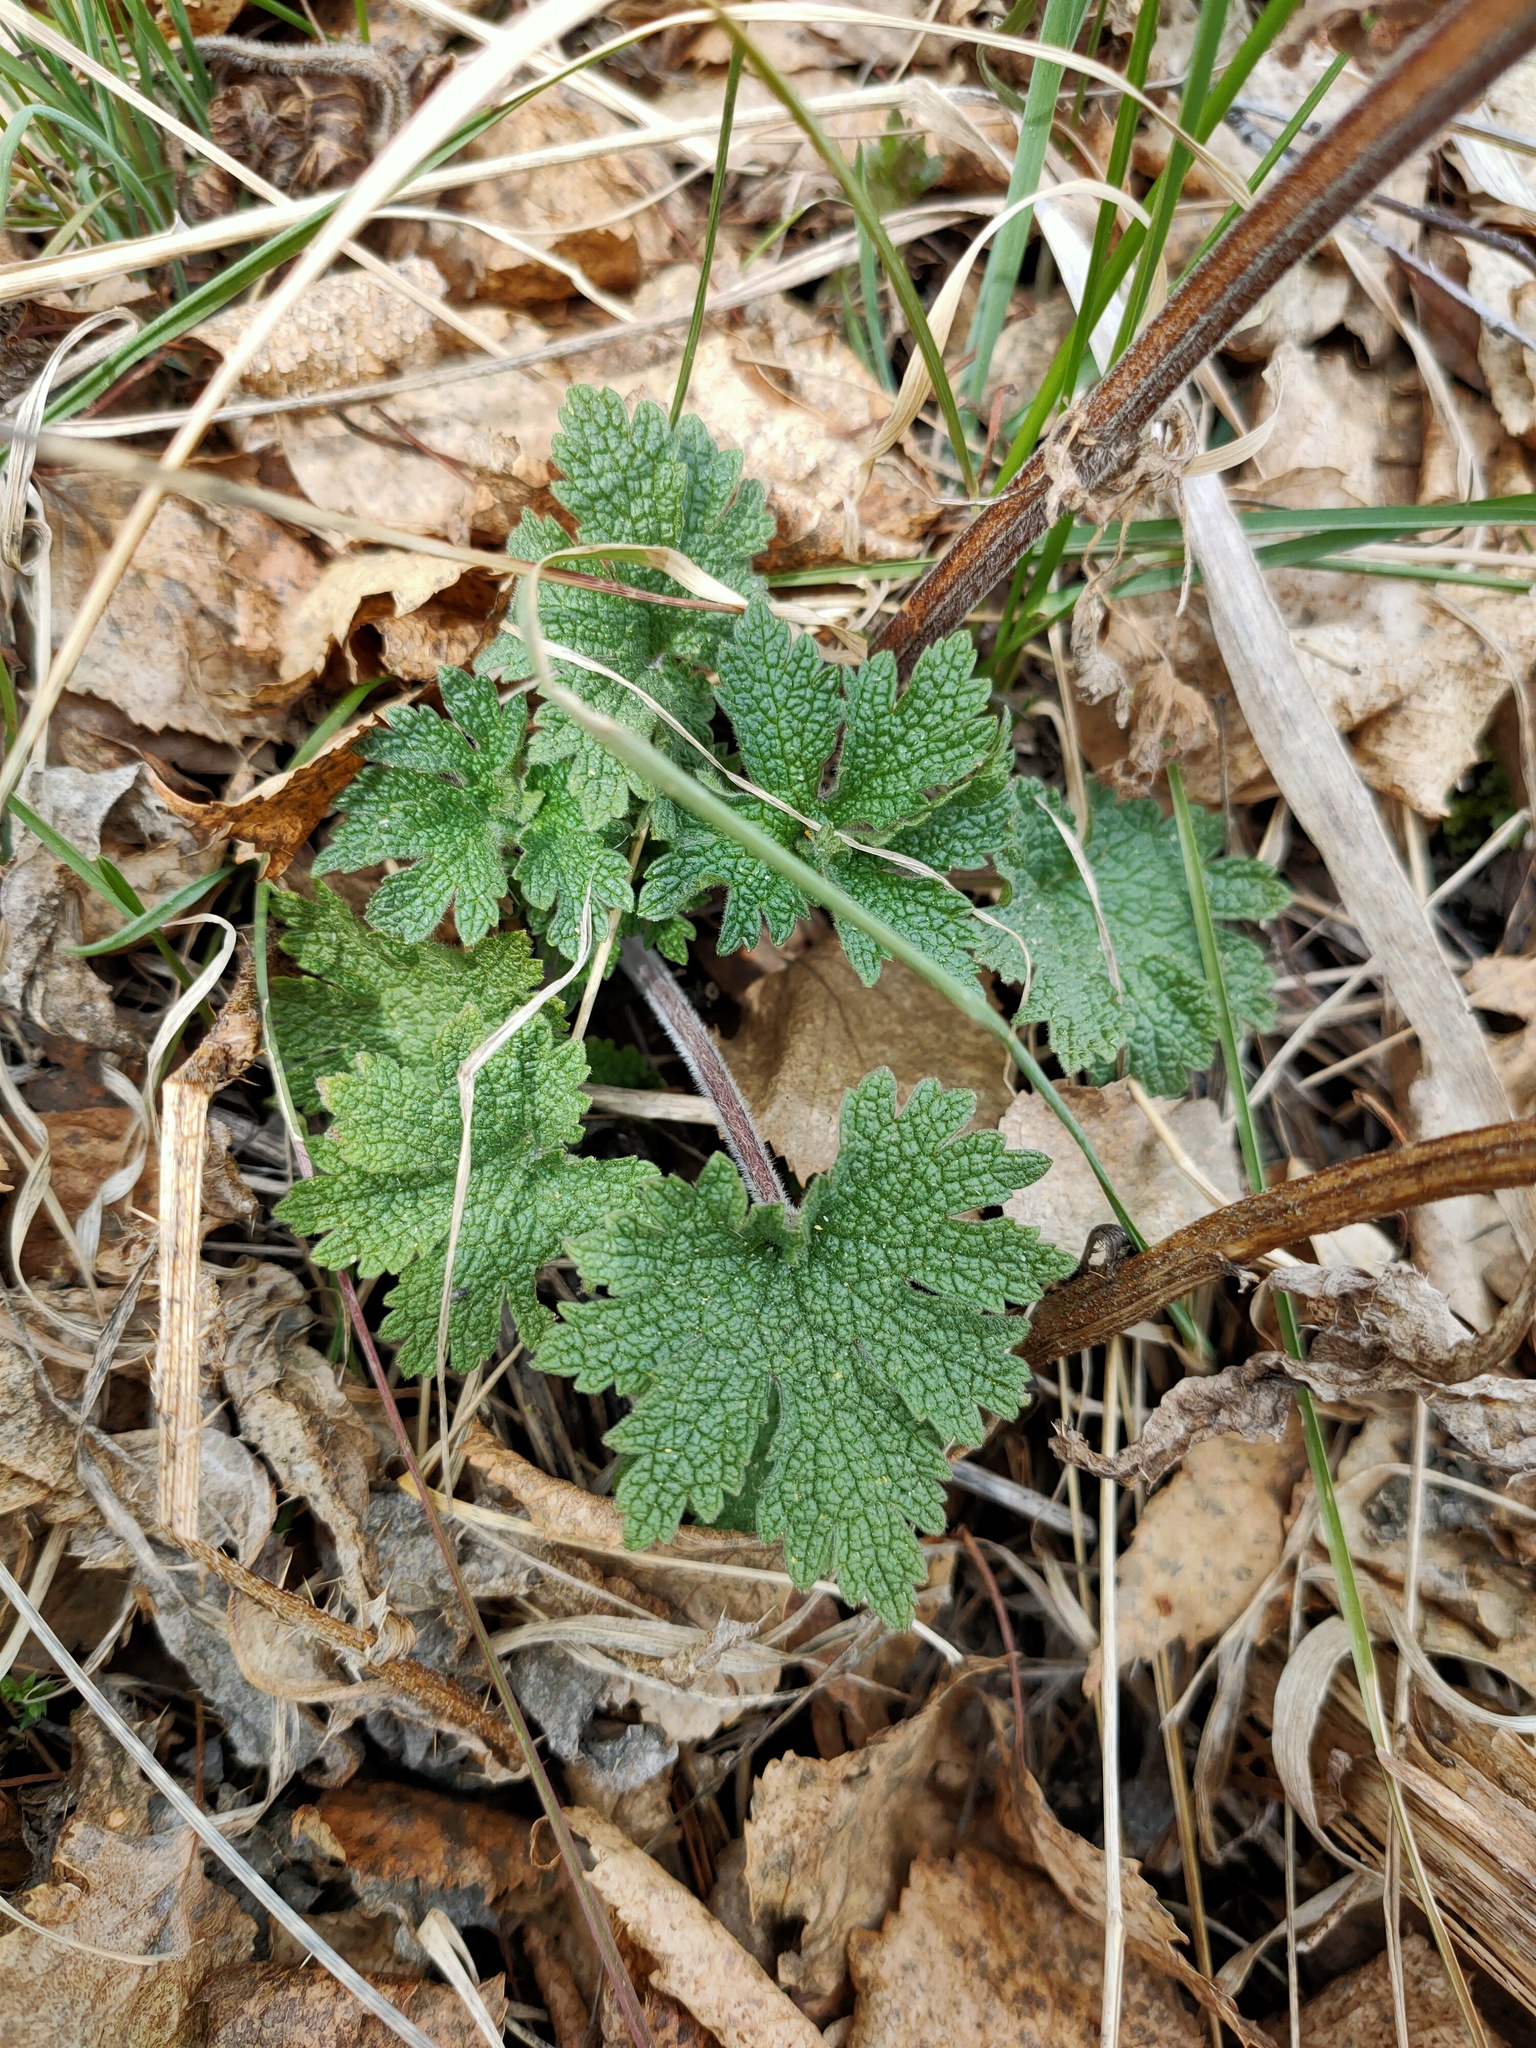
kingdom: Plantae
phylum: Tracheophyta
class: Magnoliopsida
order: Lamiales
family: Lamiaceae
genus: Leonurus
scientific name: Leonurus quinquelobatus
